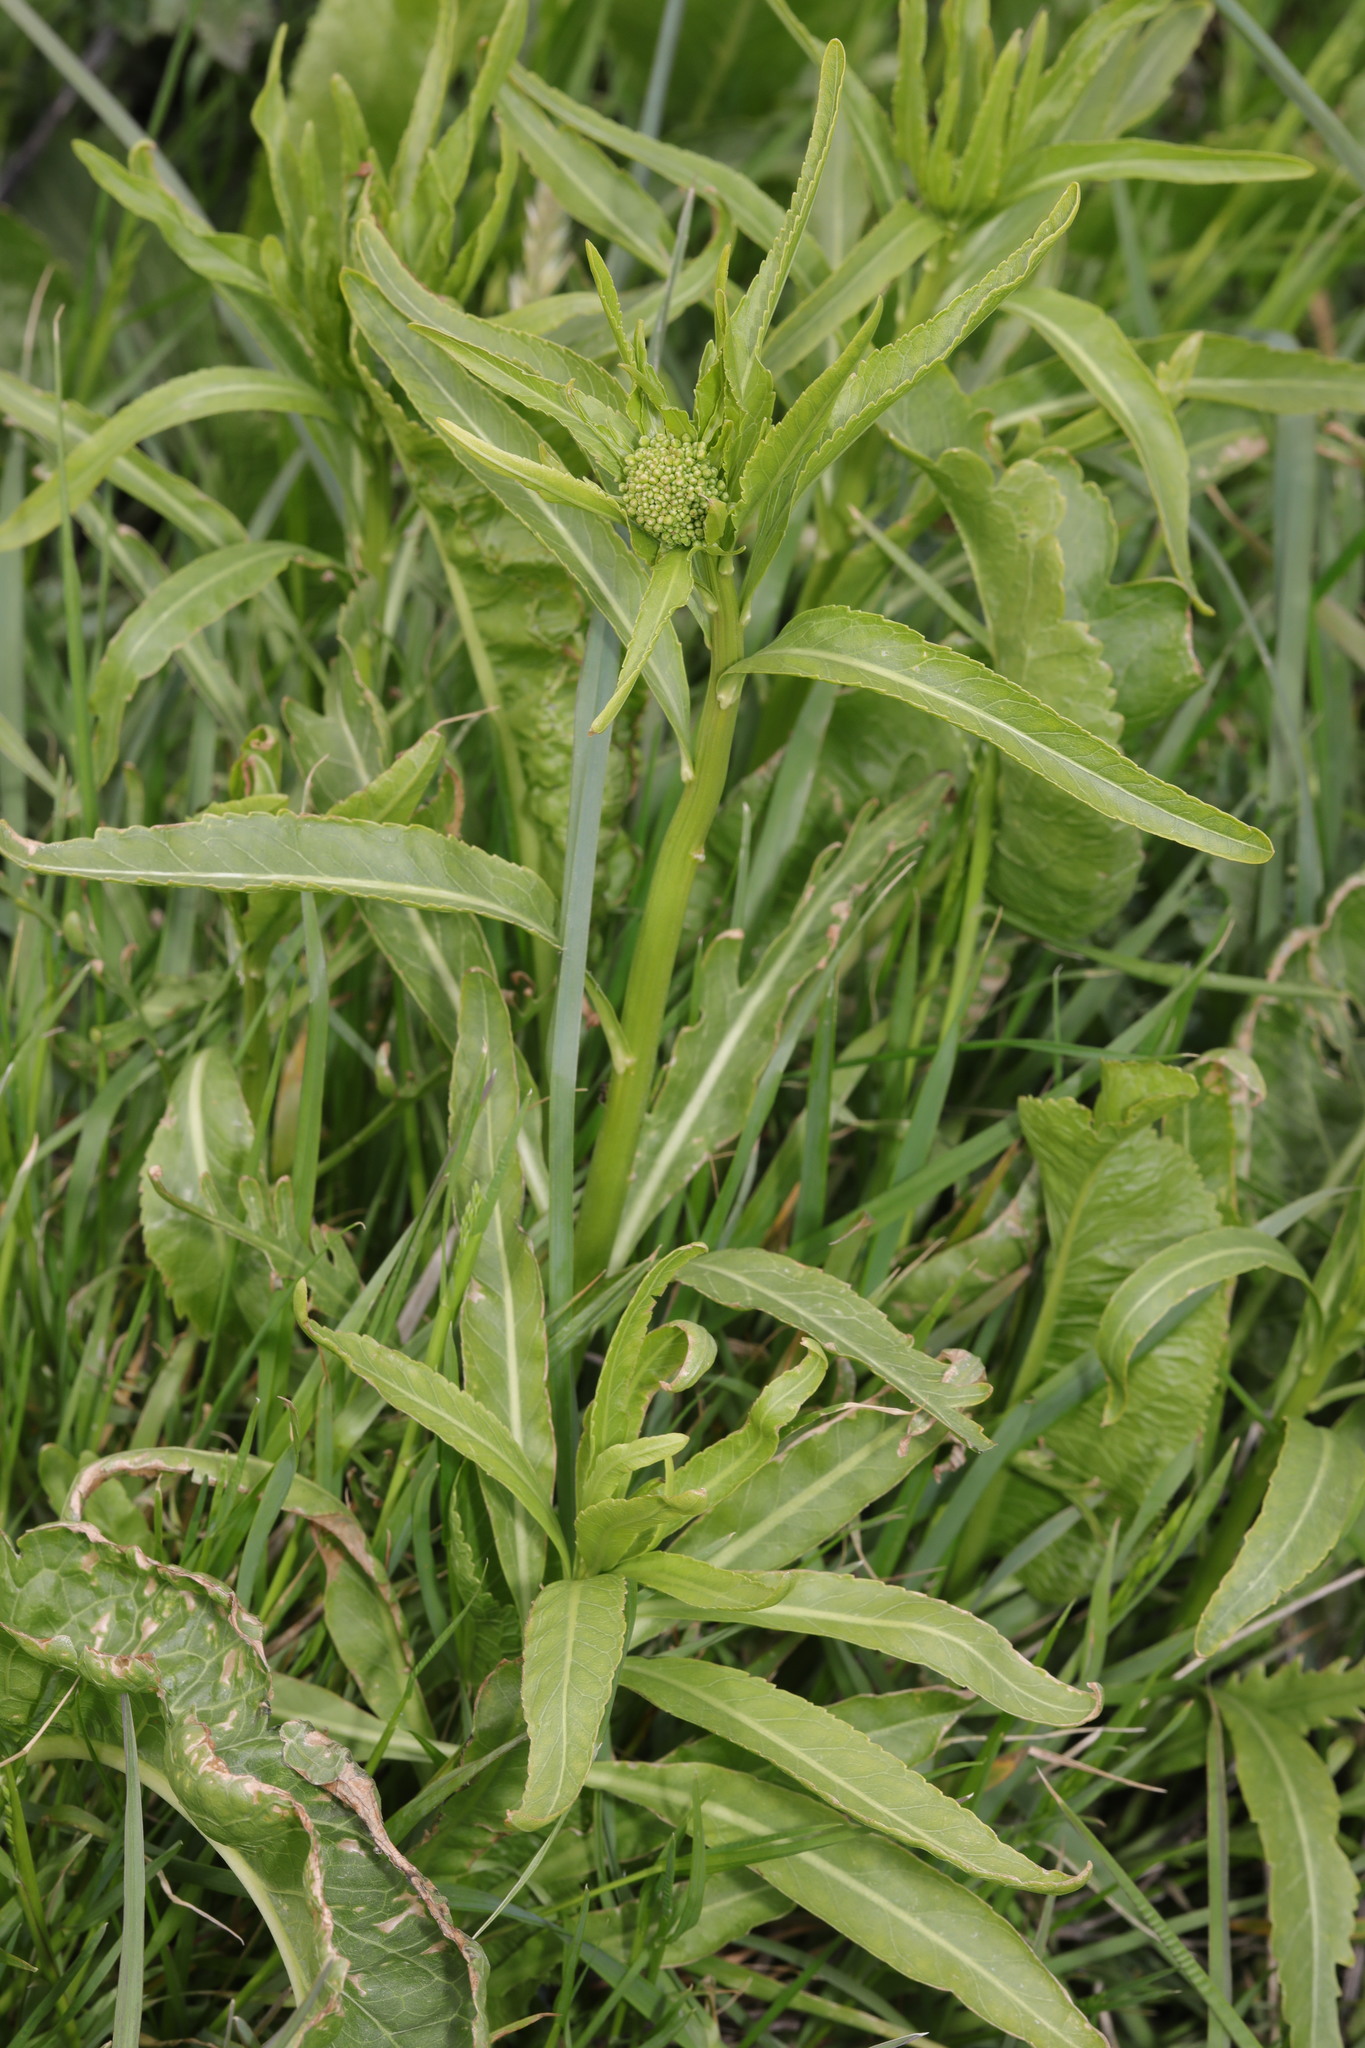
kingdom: Plantae
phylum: Tracheophyta
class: Magnoliopsida
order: Brassicales
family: Brassicaceae
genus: Armoracia
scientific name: Armoracia rusticana
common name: Horseradish
